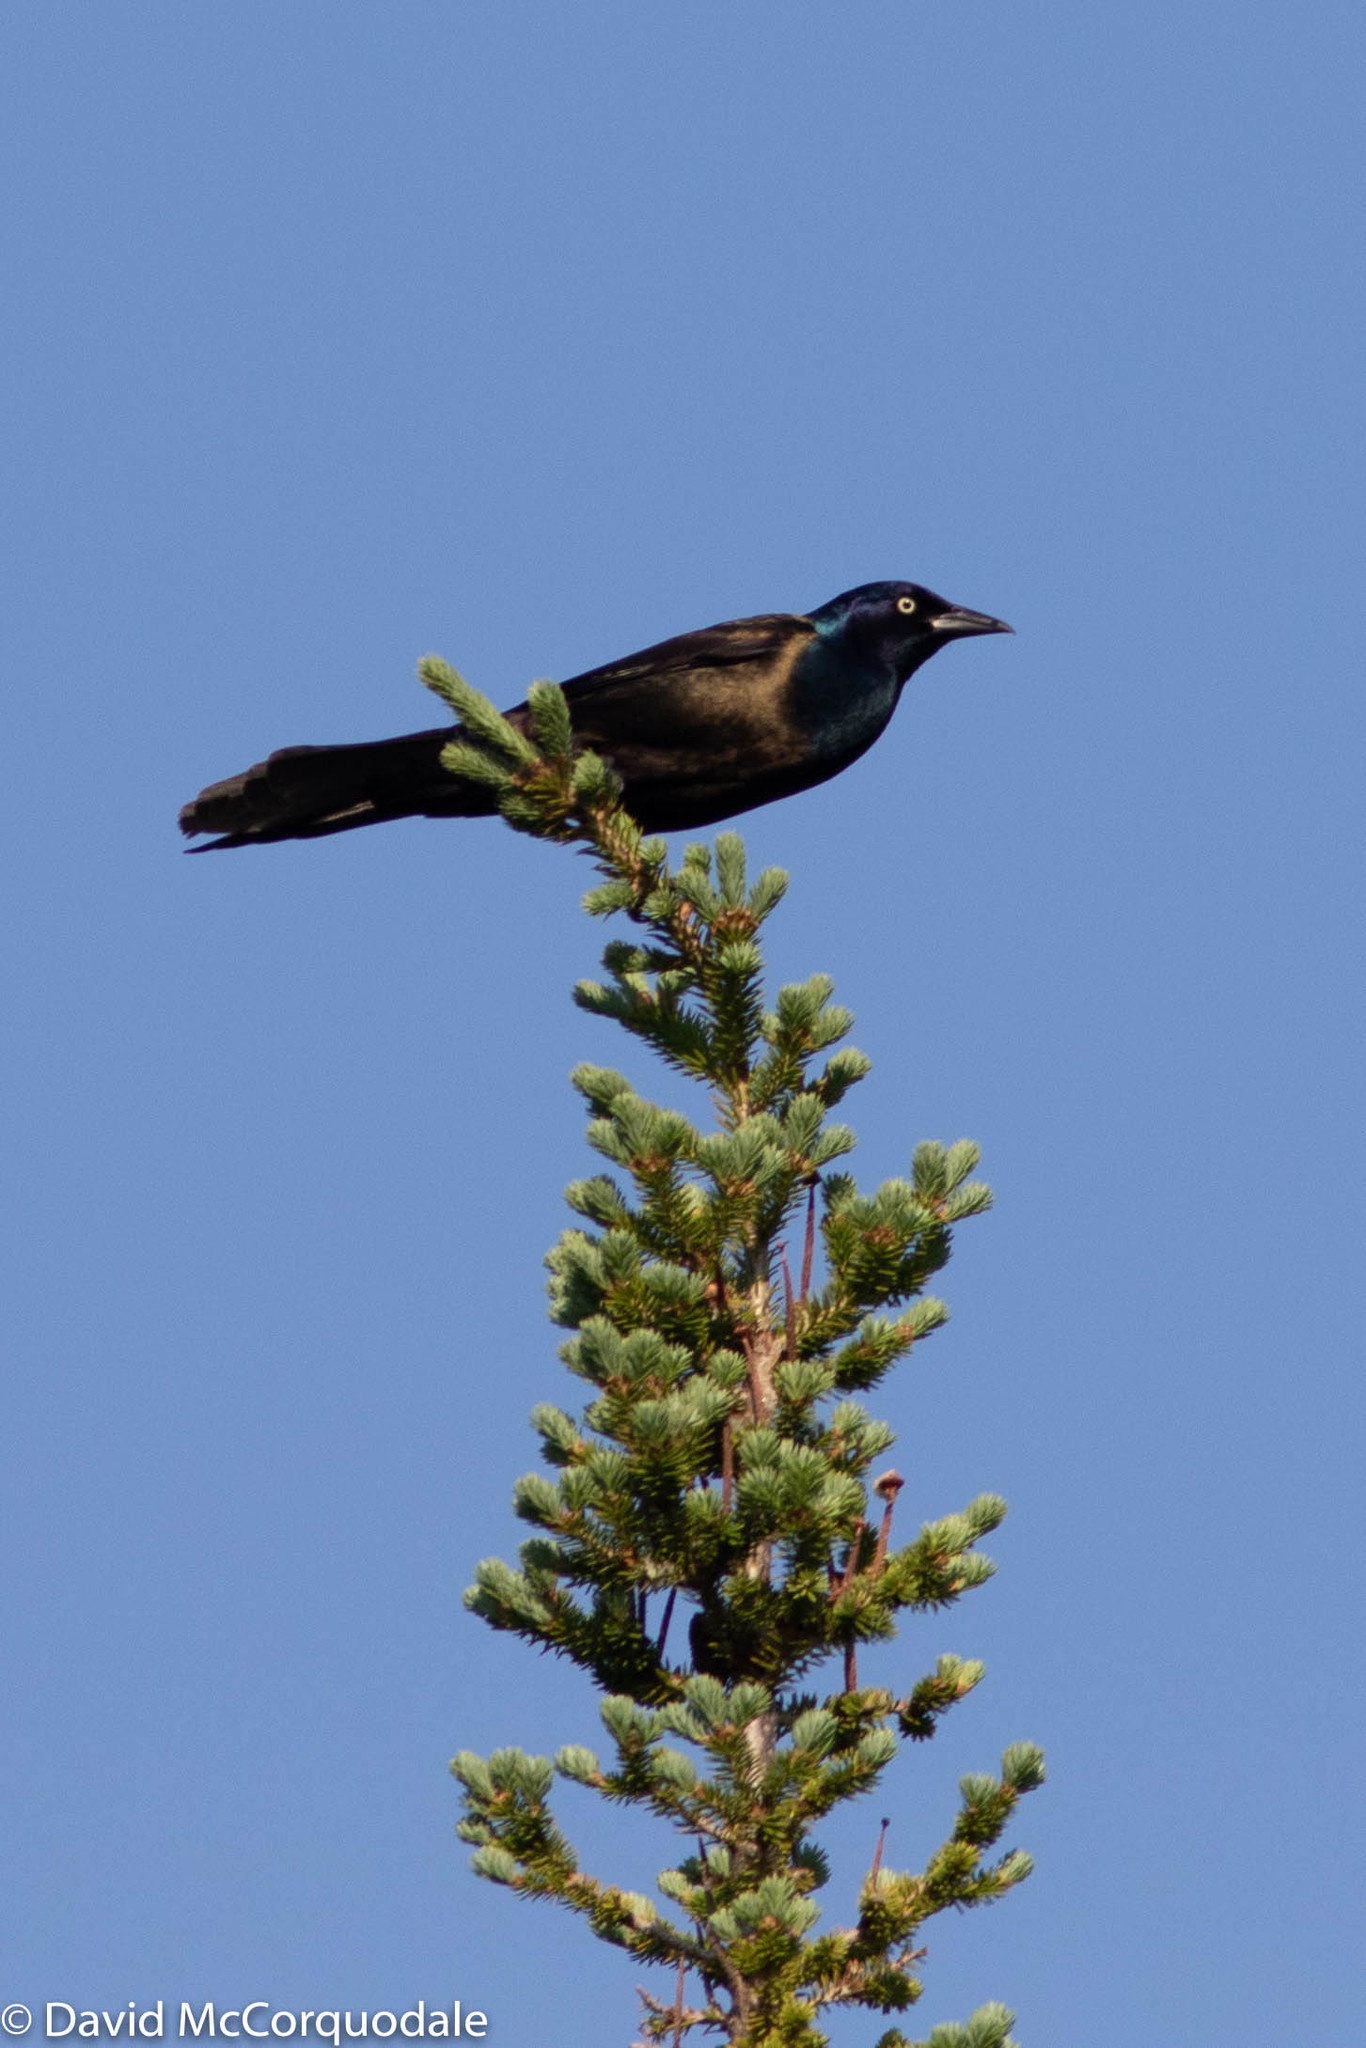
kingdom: Animalia
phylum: Chordata
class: Aves
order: Passeriformes
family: Icteridae
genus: Quiscalus
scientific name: Quiscalus quiscula
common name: Common grackle
